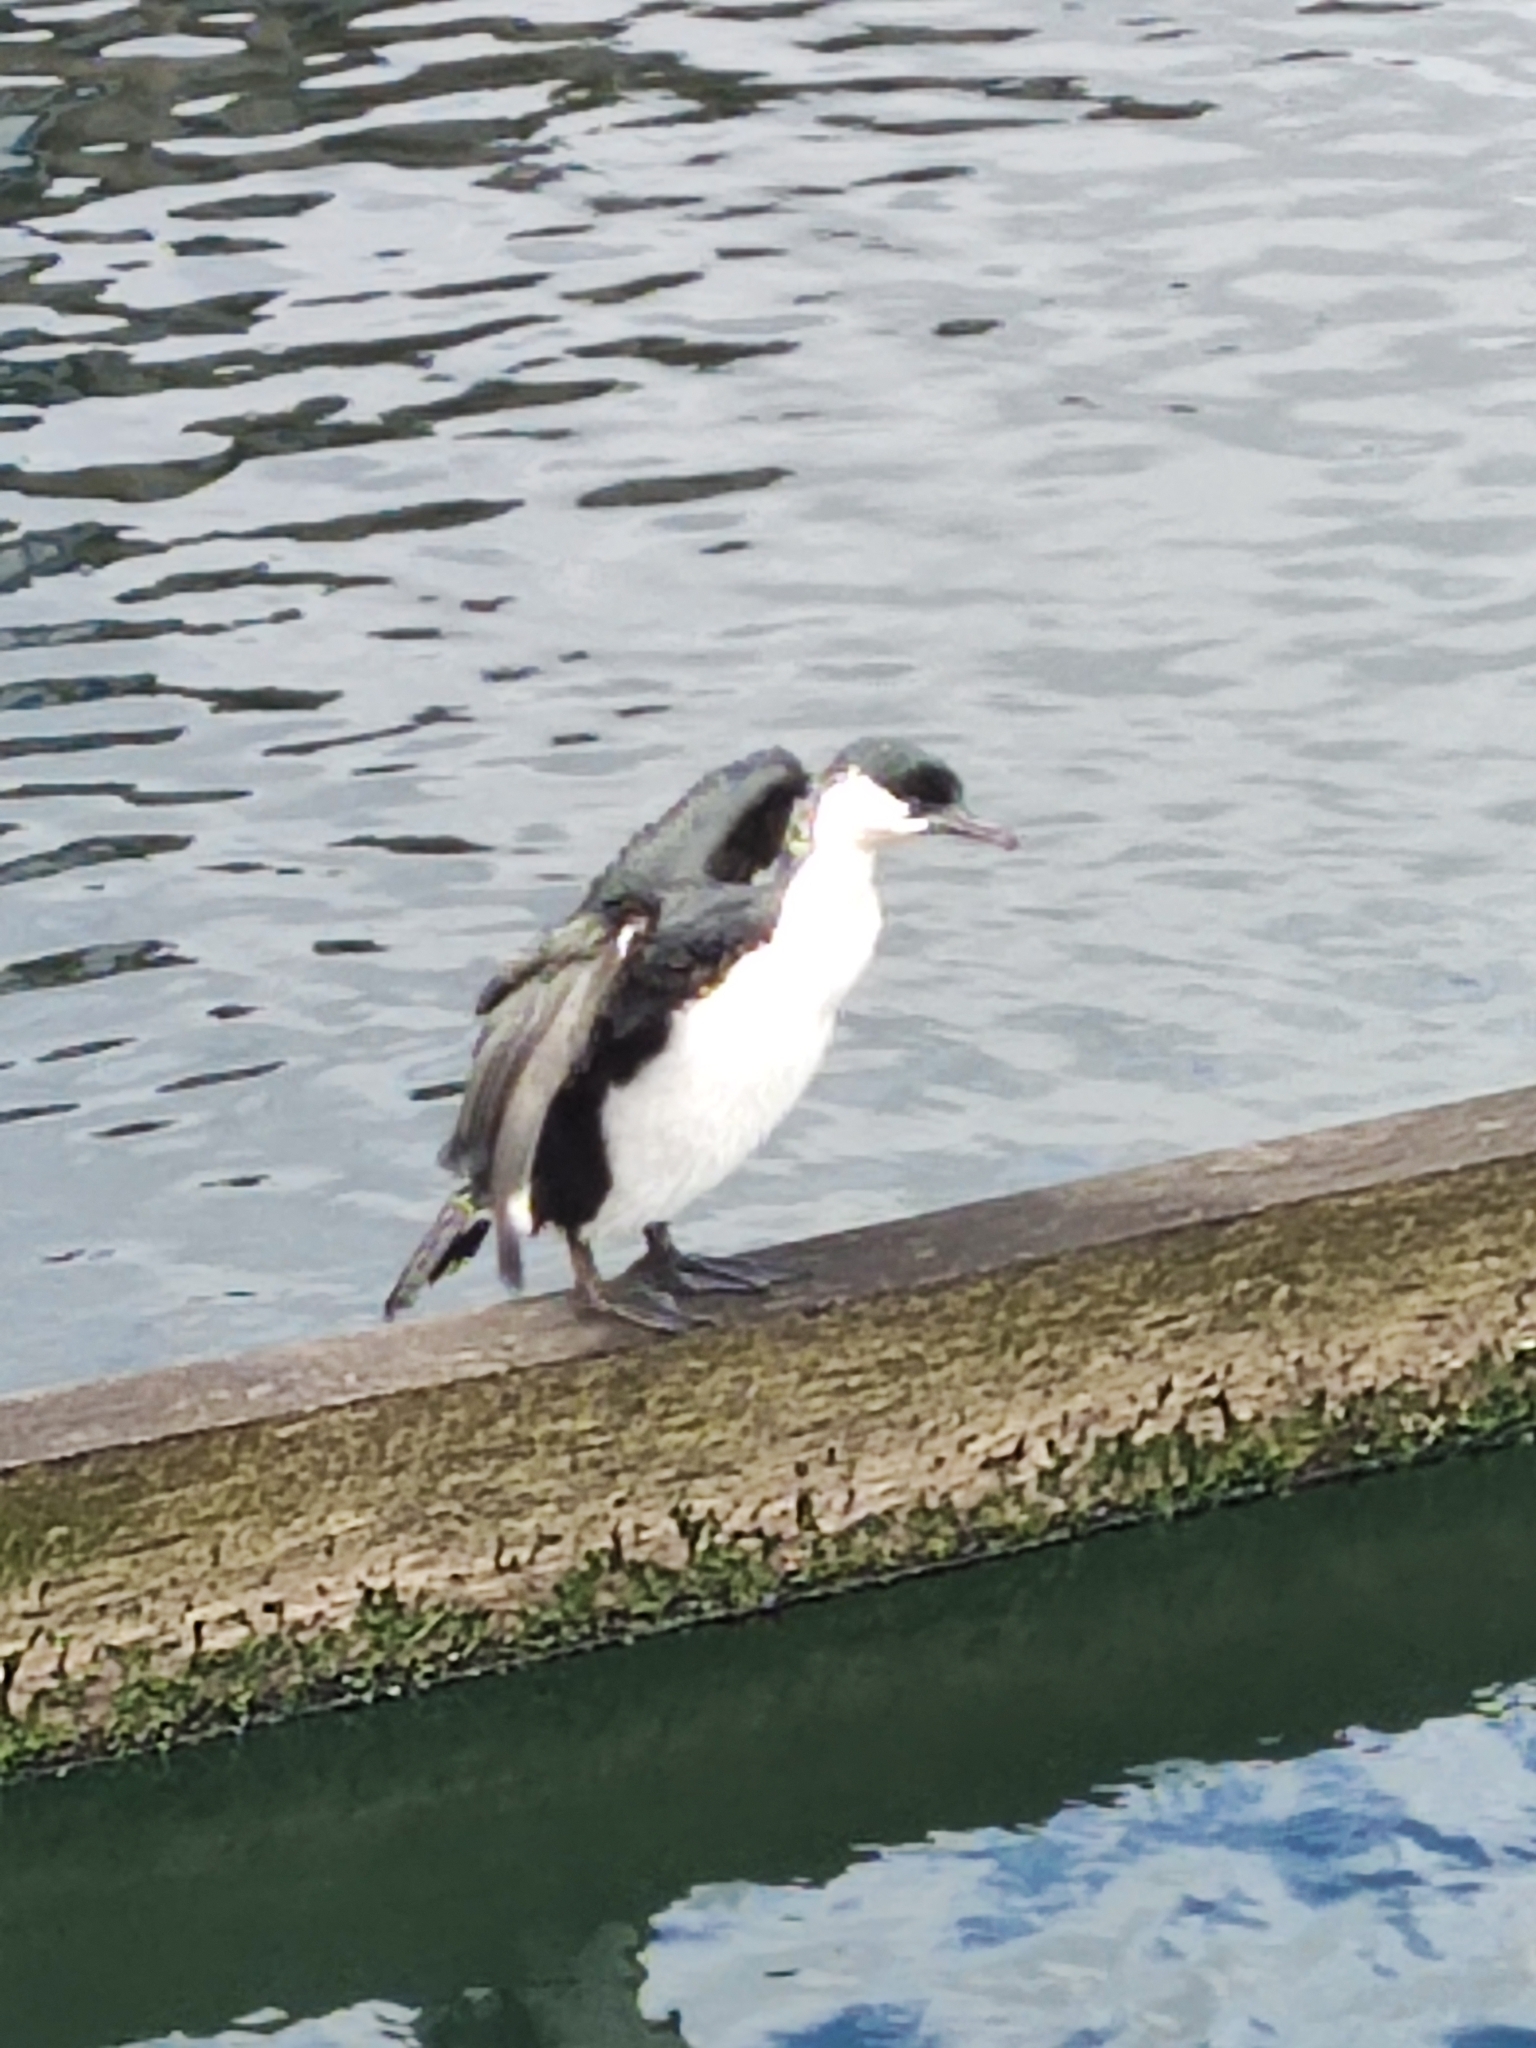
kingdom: Animalia
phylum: Chordata
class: Aves
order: Suliformes
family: Phalacrocoracidae
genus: Phalacrocorax
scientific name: Phalacrocorax fuscescens
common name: Black-faced cormorant
